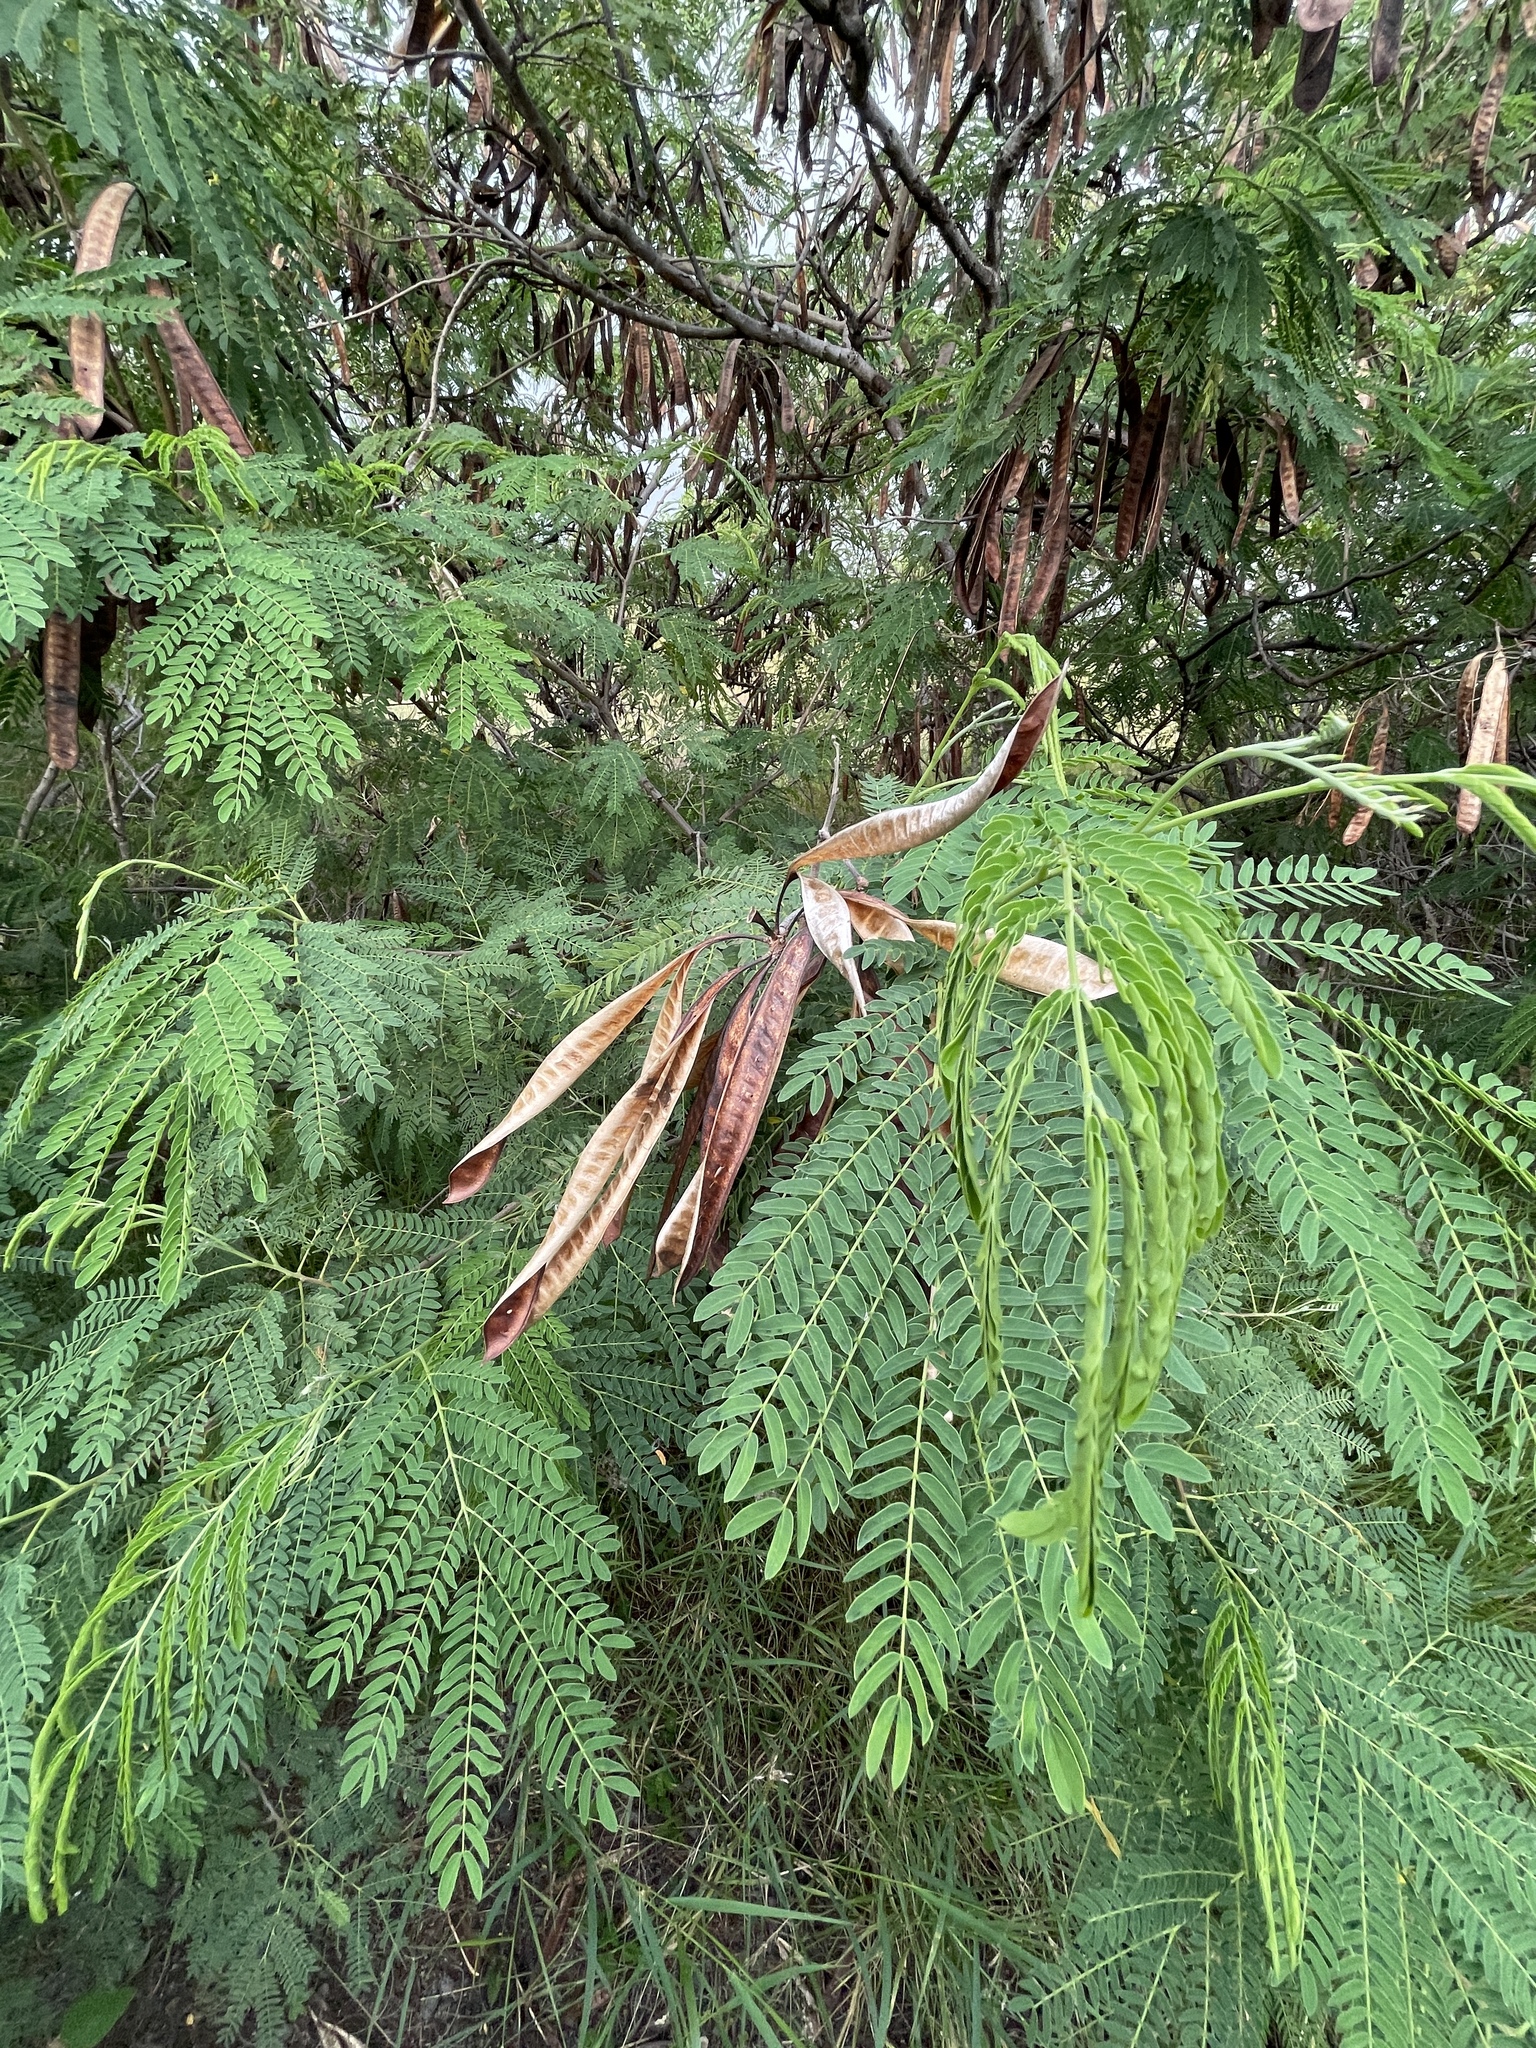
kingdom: Plantae
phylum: Tracheophyta
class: Magnoliopsida
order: Fabales
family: Fabaceae
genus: Leucaena
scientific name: Leucaena leucocephala
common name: White leadtree
